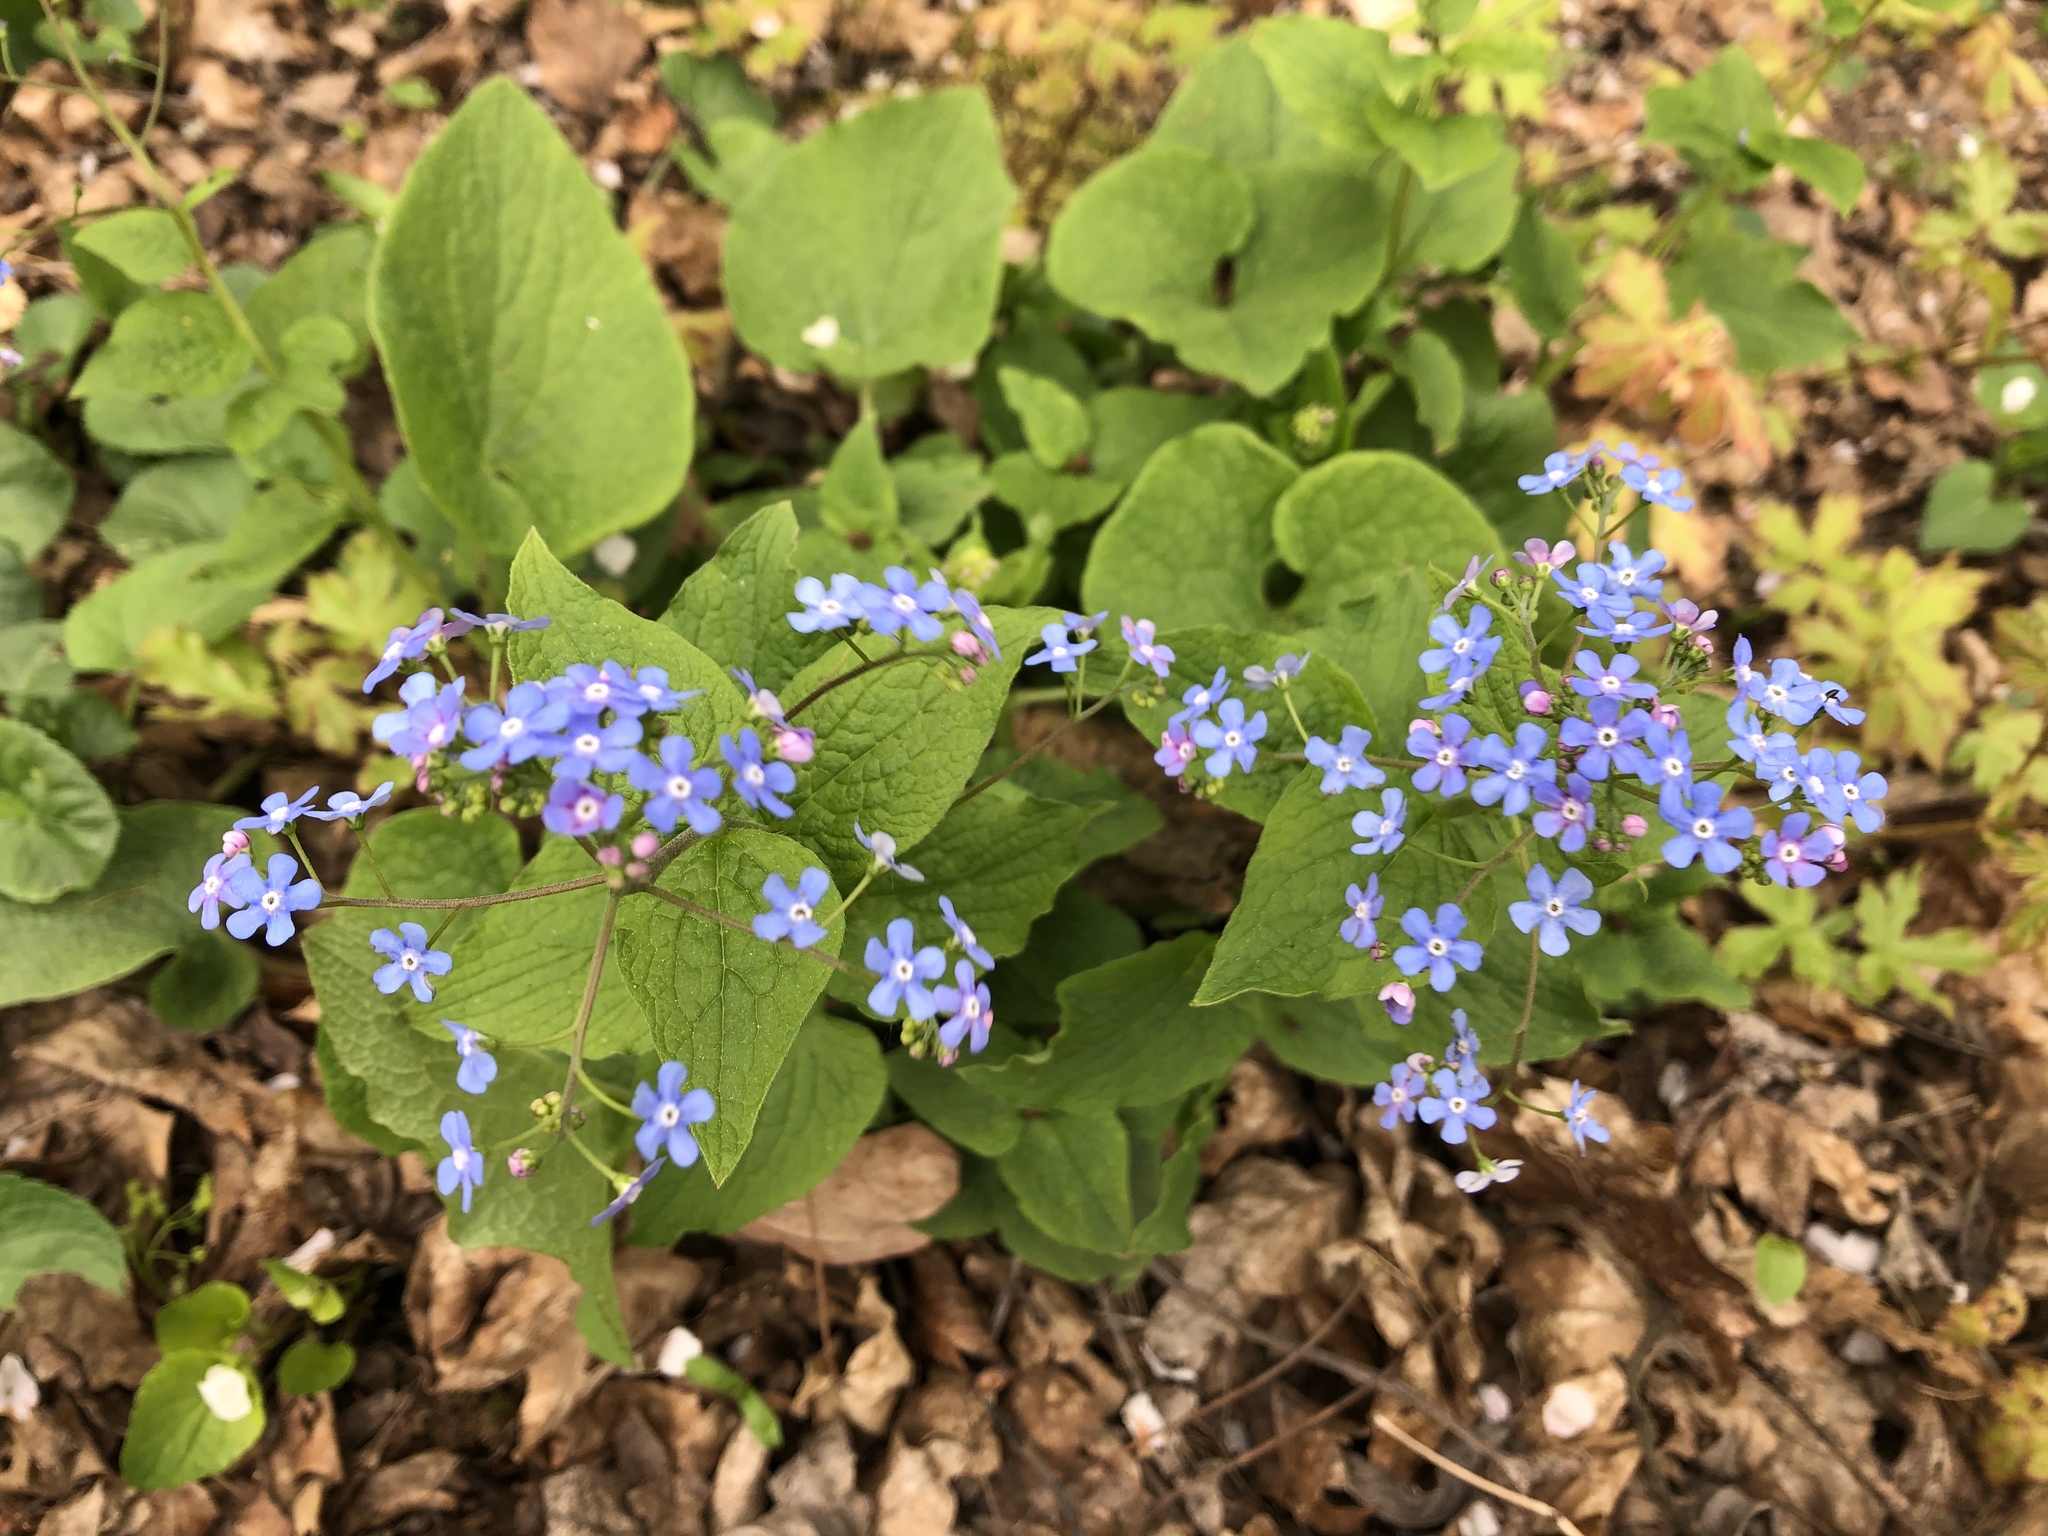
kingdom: Plantae
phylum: Tracheophyta
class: Magnoliopsida
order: Boraginales
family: Boraginaceae
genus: Brunnera
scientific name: Brunnera macrophylla
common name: Great forget-me-not
